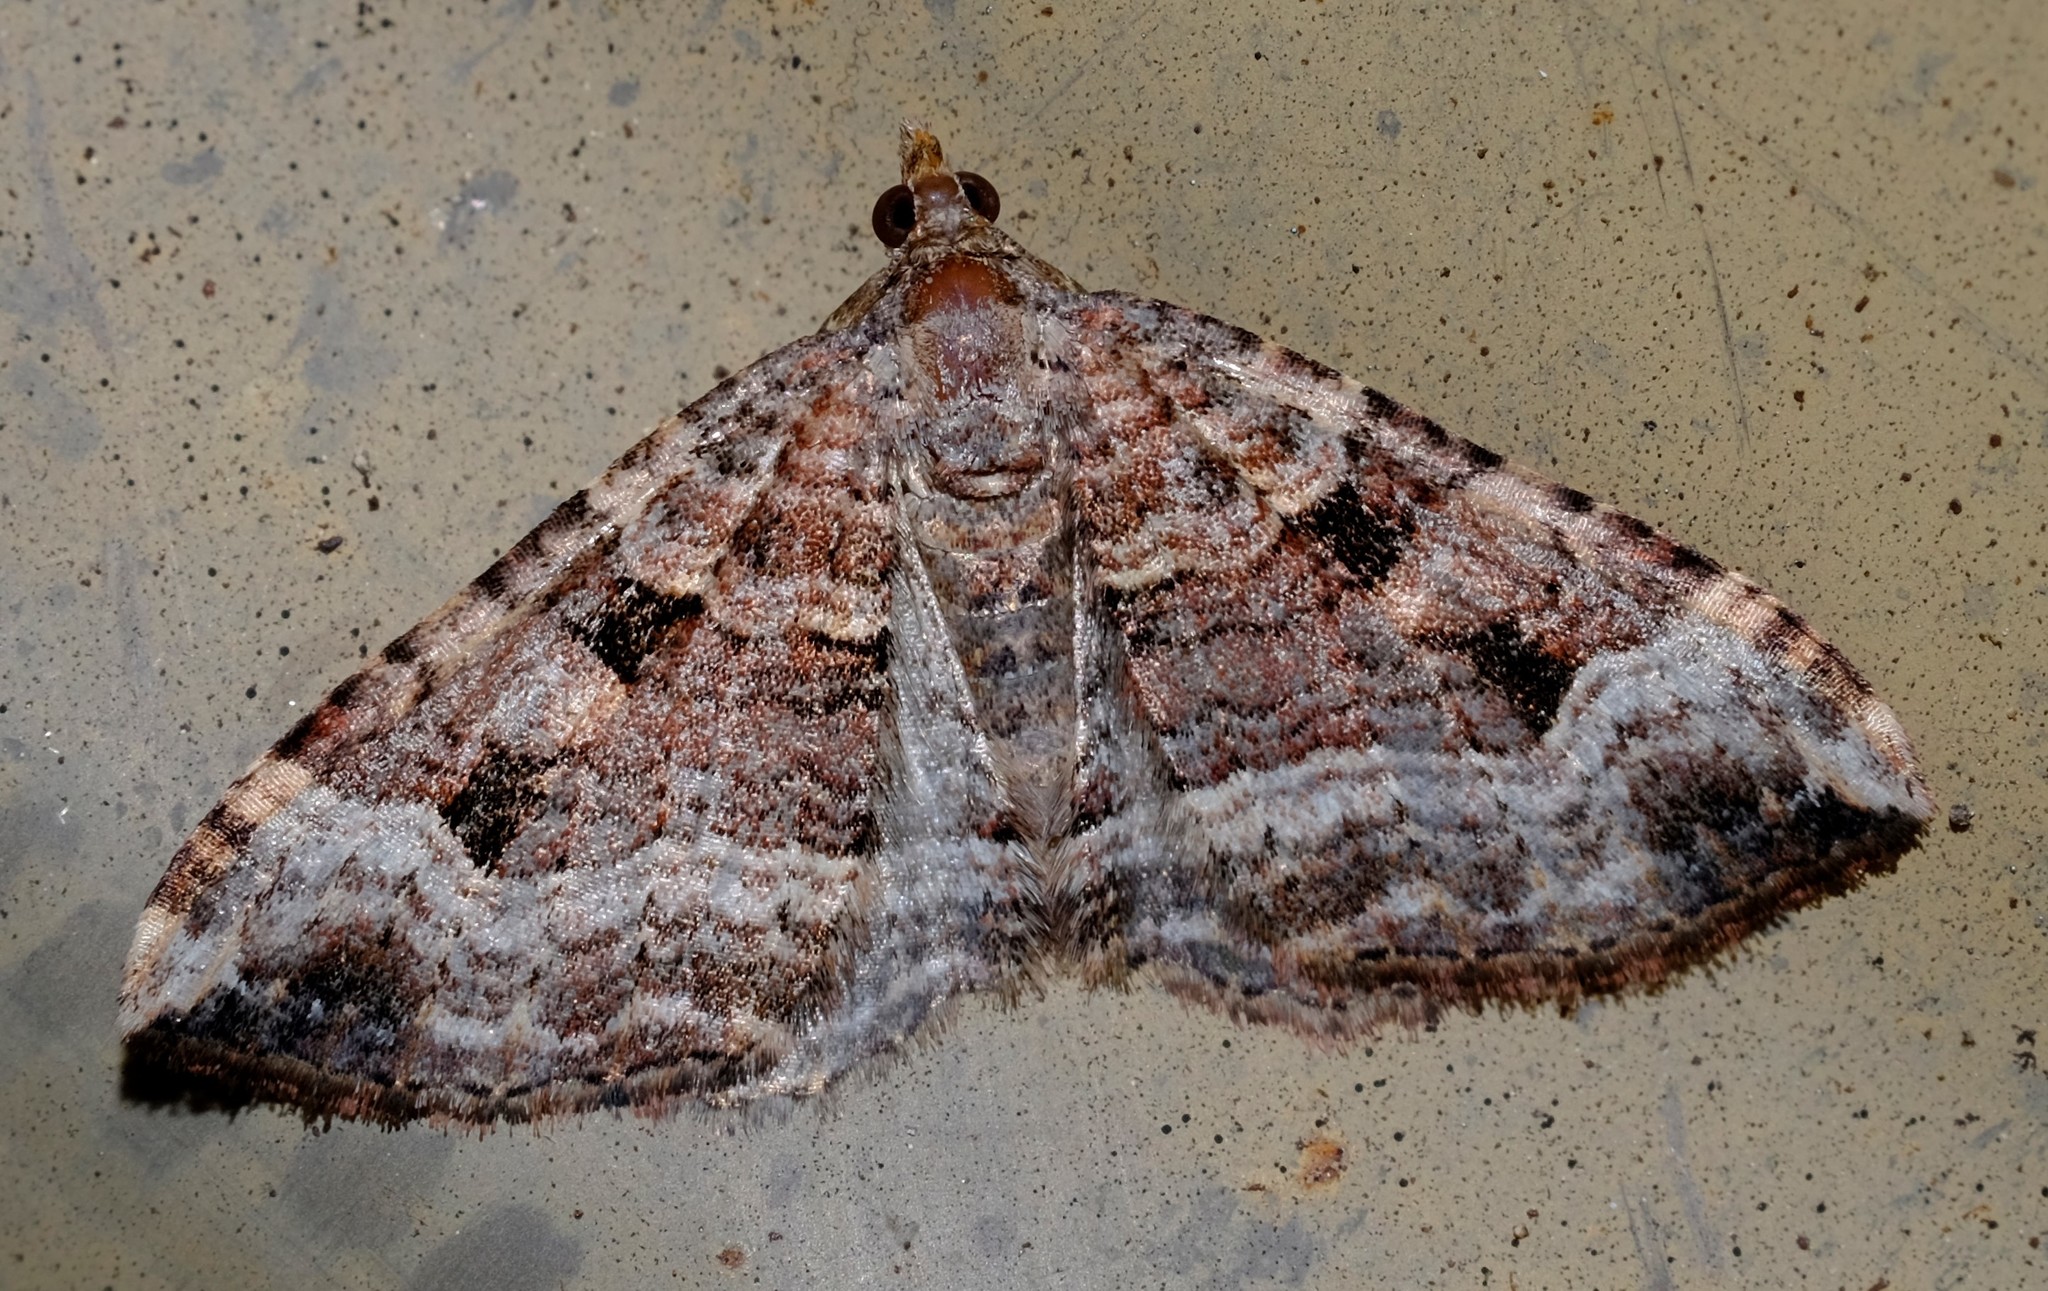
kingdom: Animalia
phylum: Arthropoda
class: Insecta
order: Lepidoptera
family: Geometridae
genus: Epyaxa
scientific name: Epyaxa subidaria
